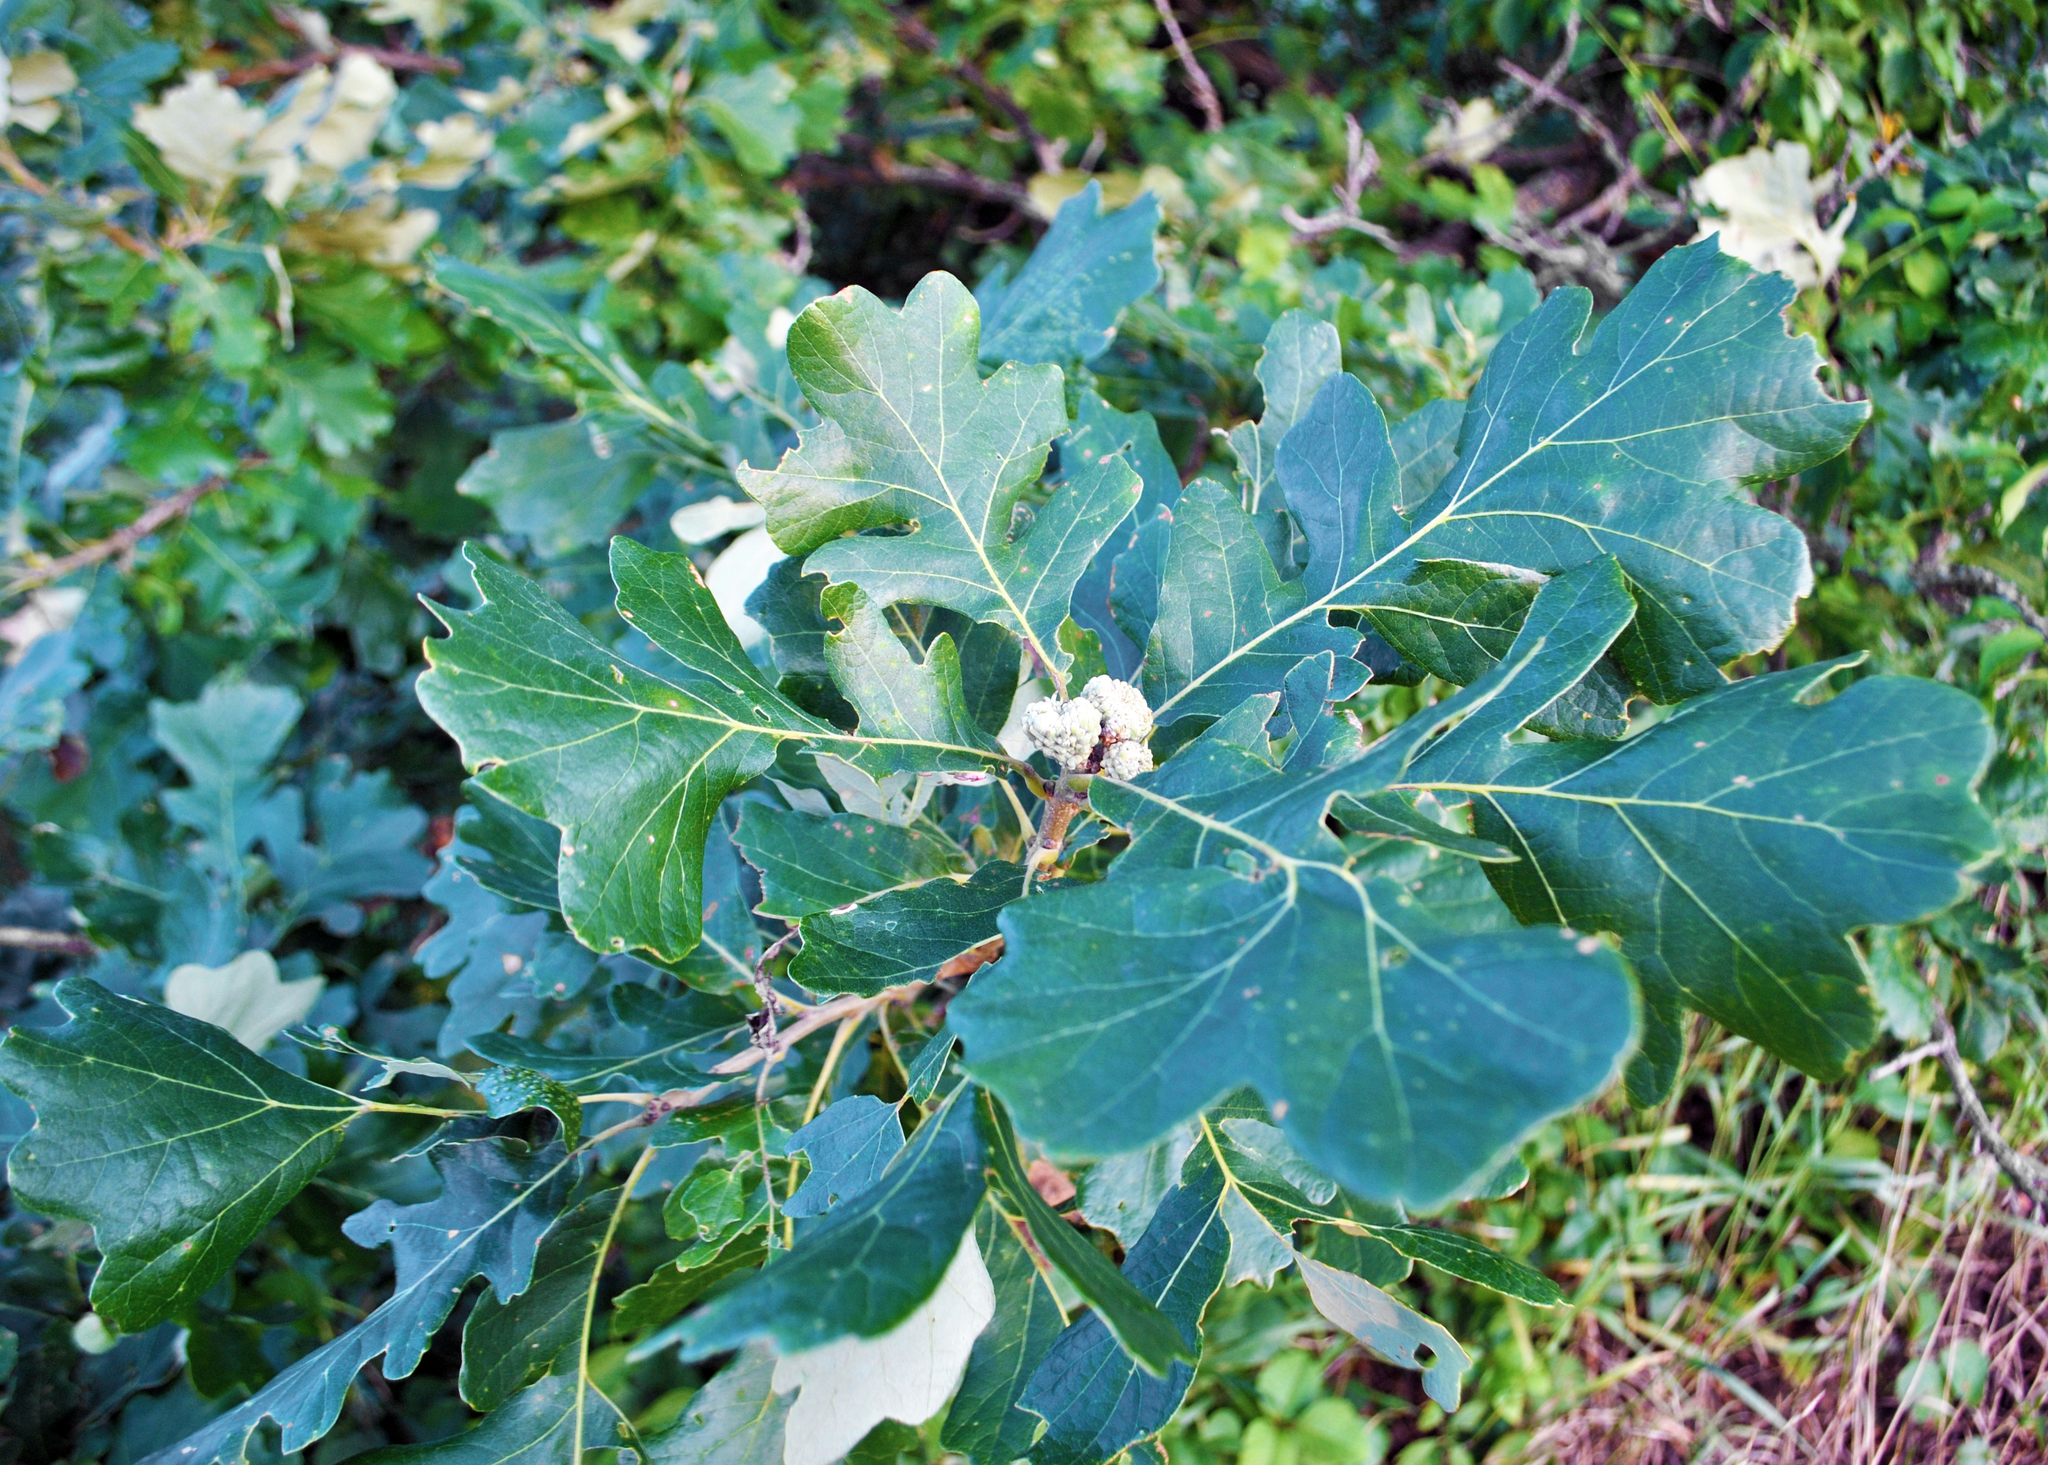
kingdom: Plantae
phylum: Tracheophyta
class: Magnoliopsida
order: Fagales
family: Fagaceae
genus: Quercus
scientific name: Quercus macrocarpa
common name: Bur oak
